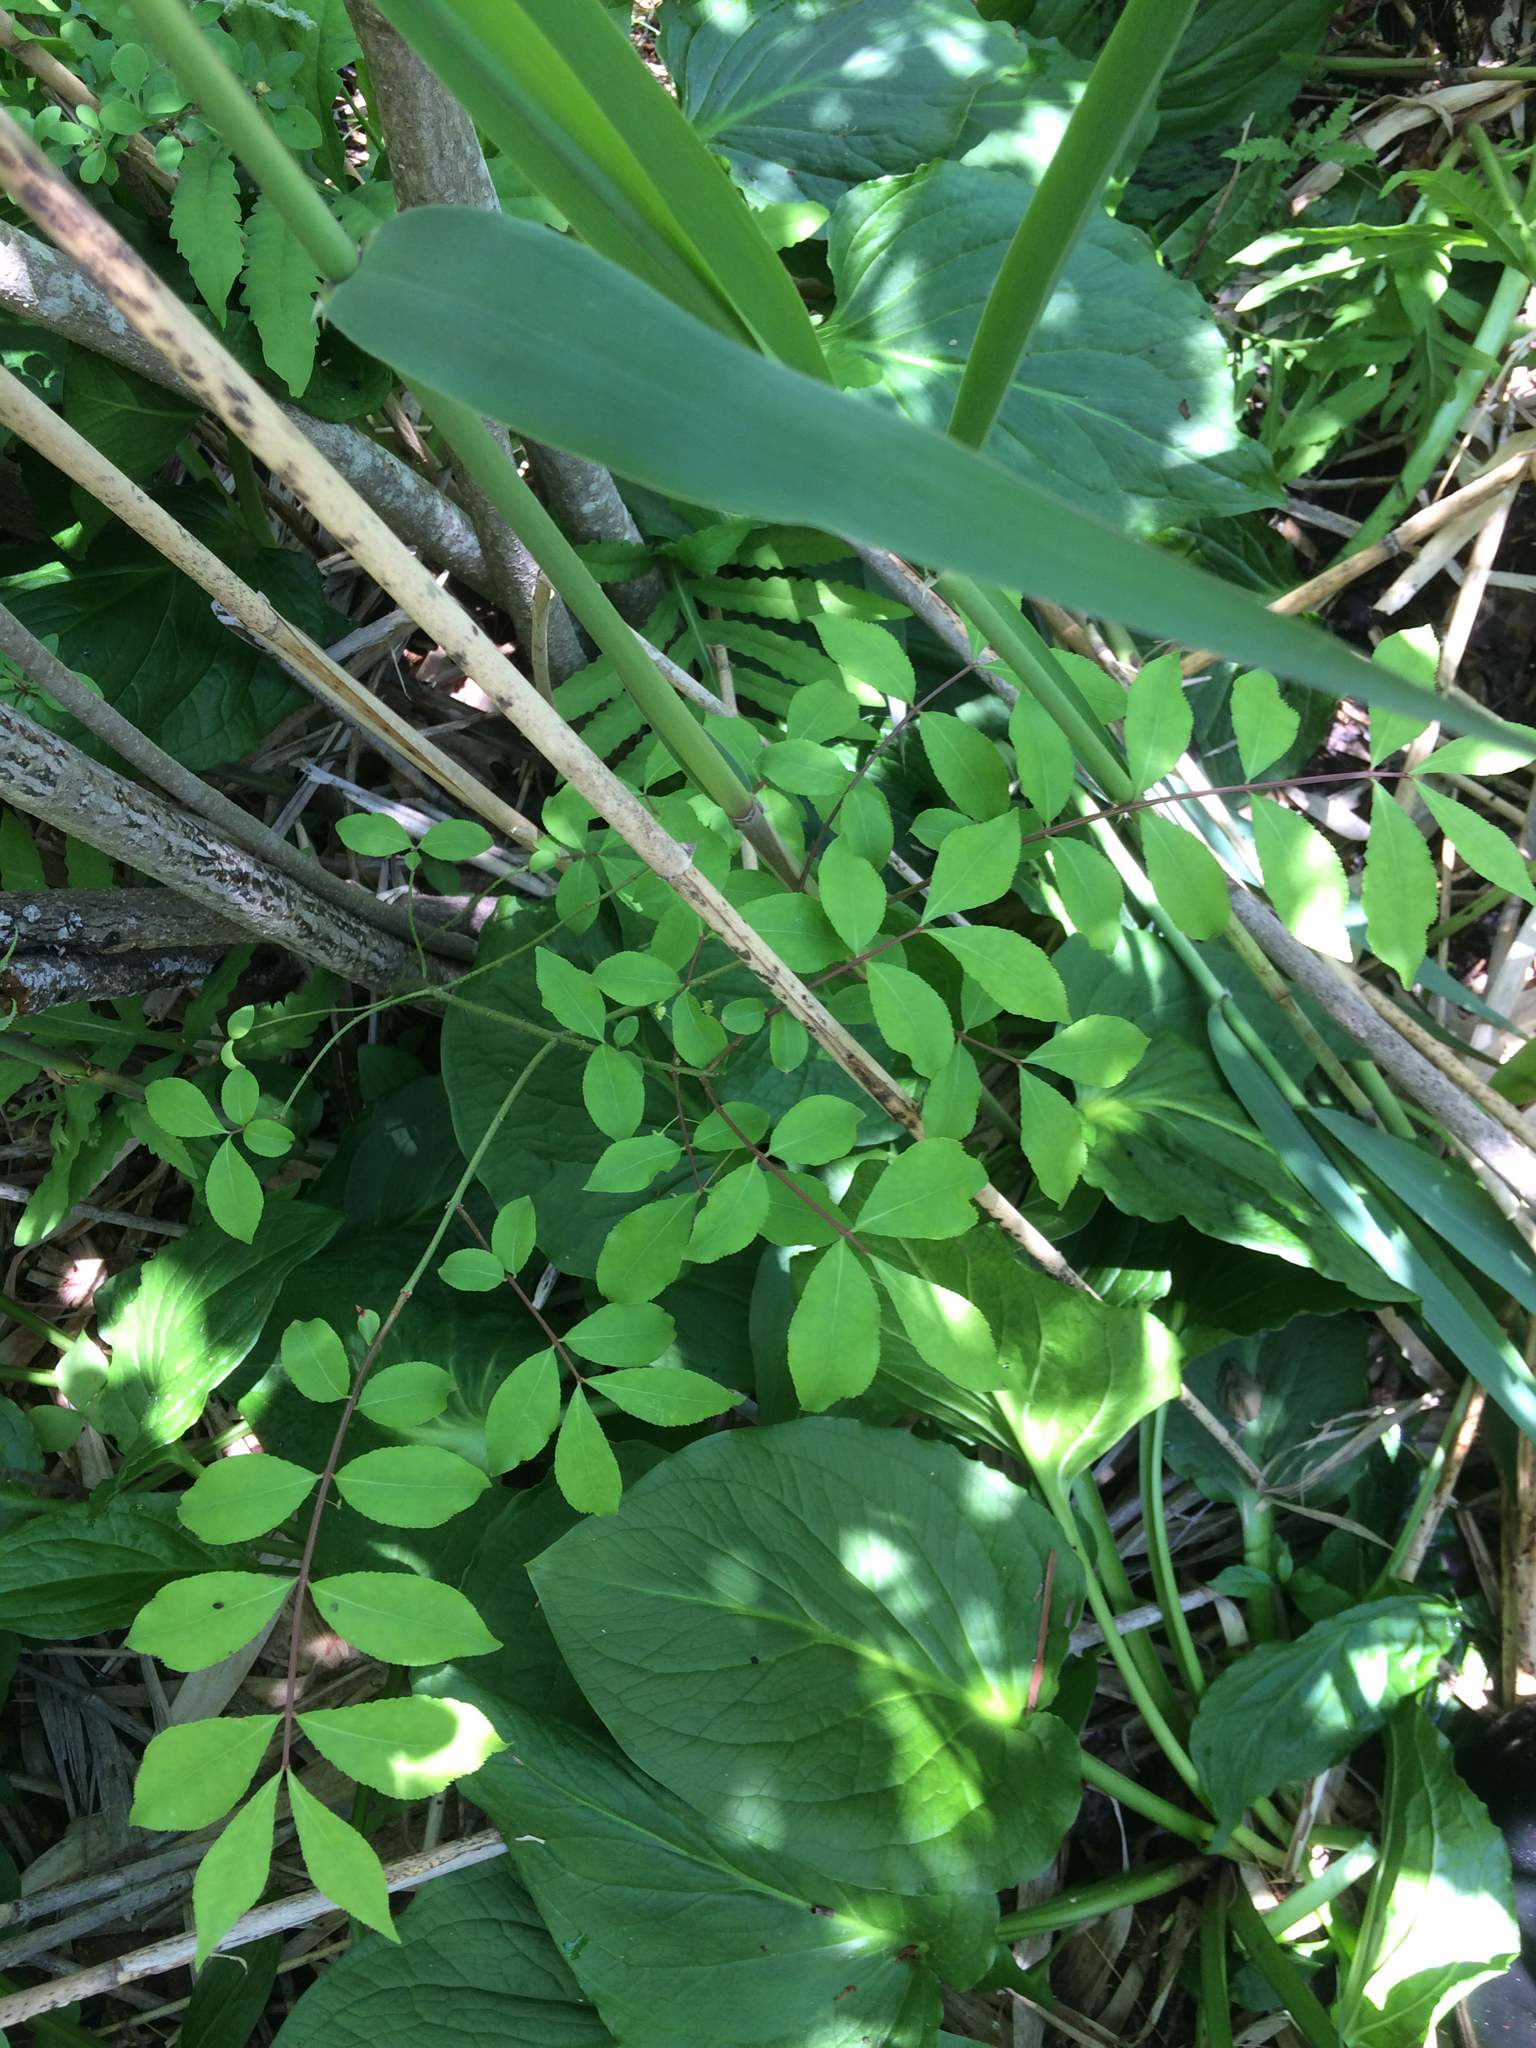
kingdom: Plantae
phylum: Tracheophyta
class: Magnoliopsida
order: Celastrales
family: Celastraceae
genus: Euonymus
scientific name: Euonymus alatus
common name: Winged euonymus
